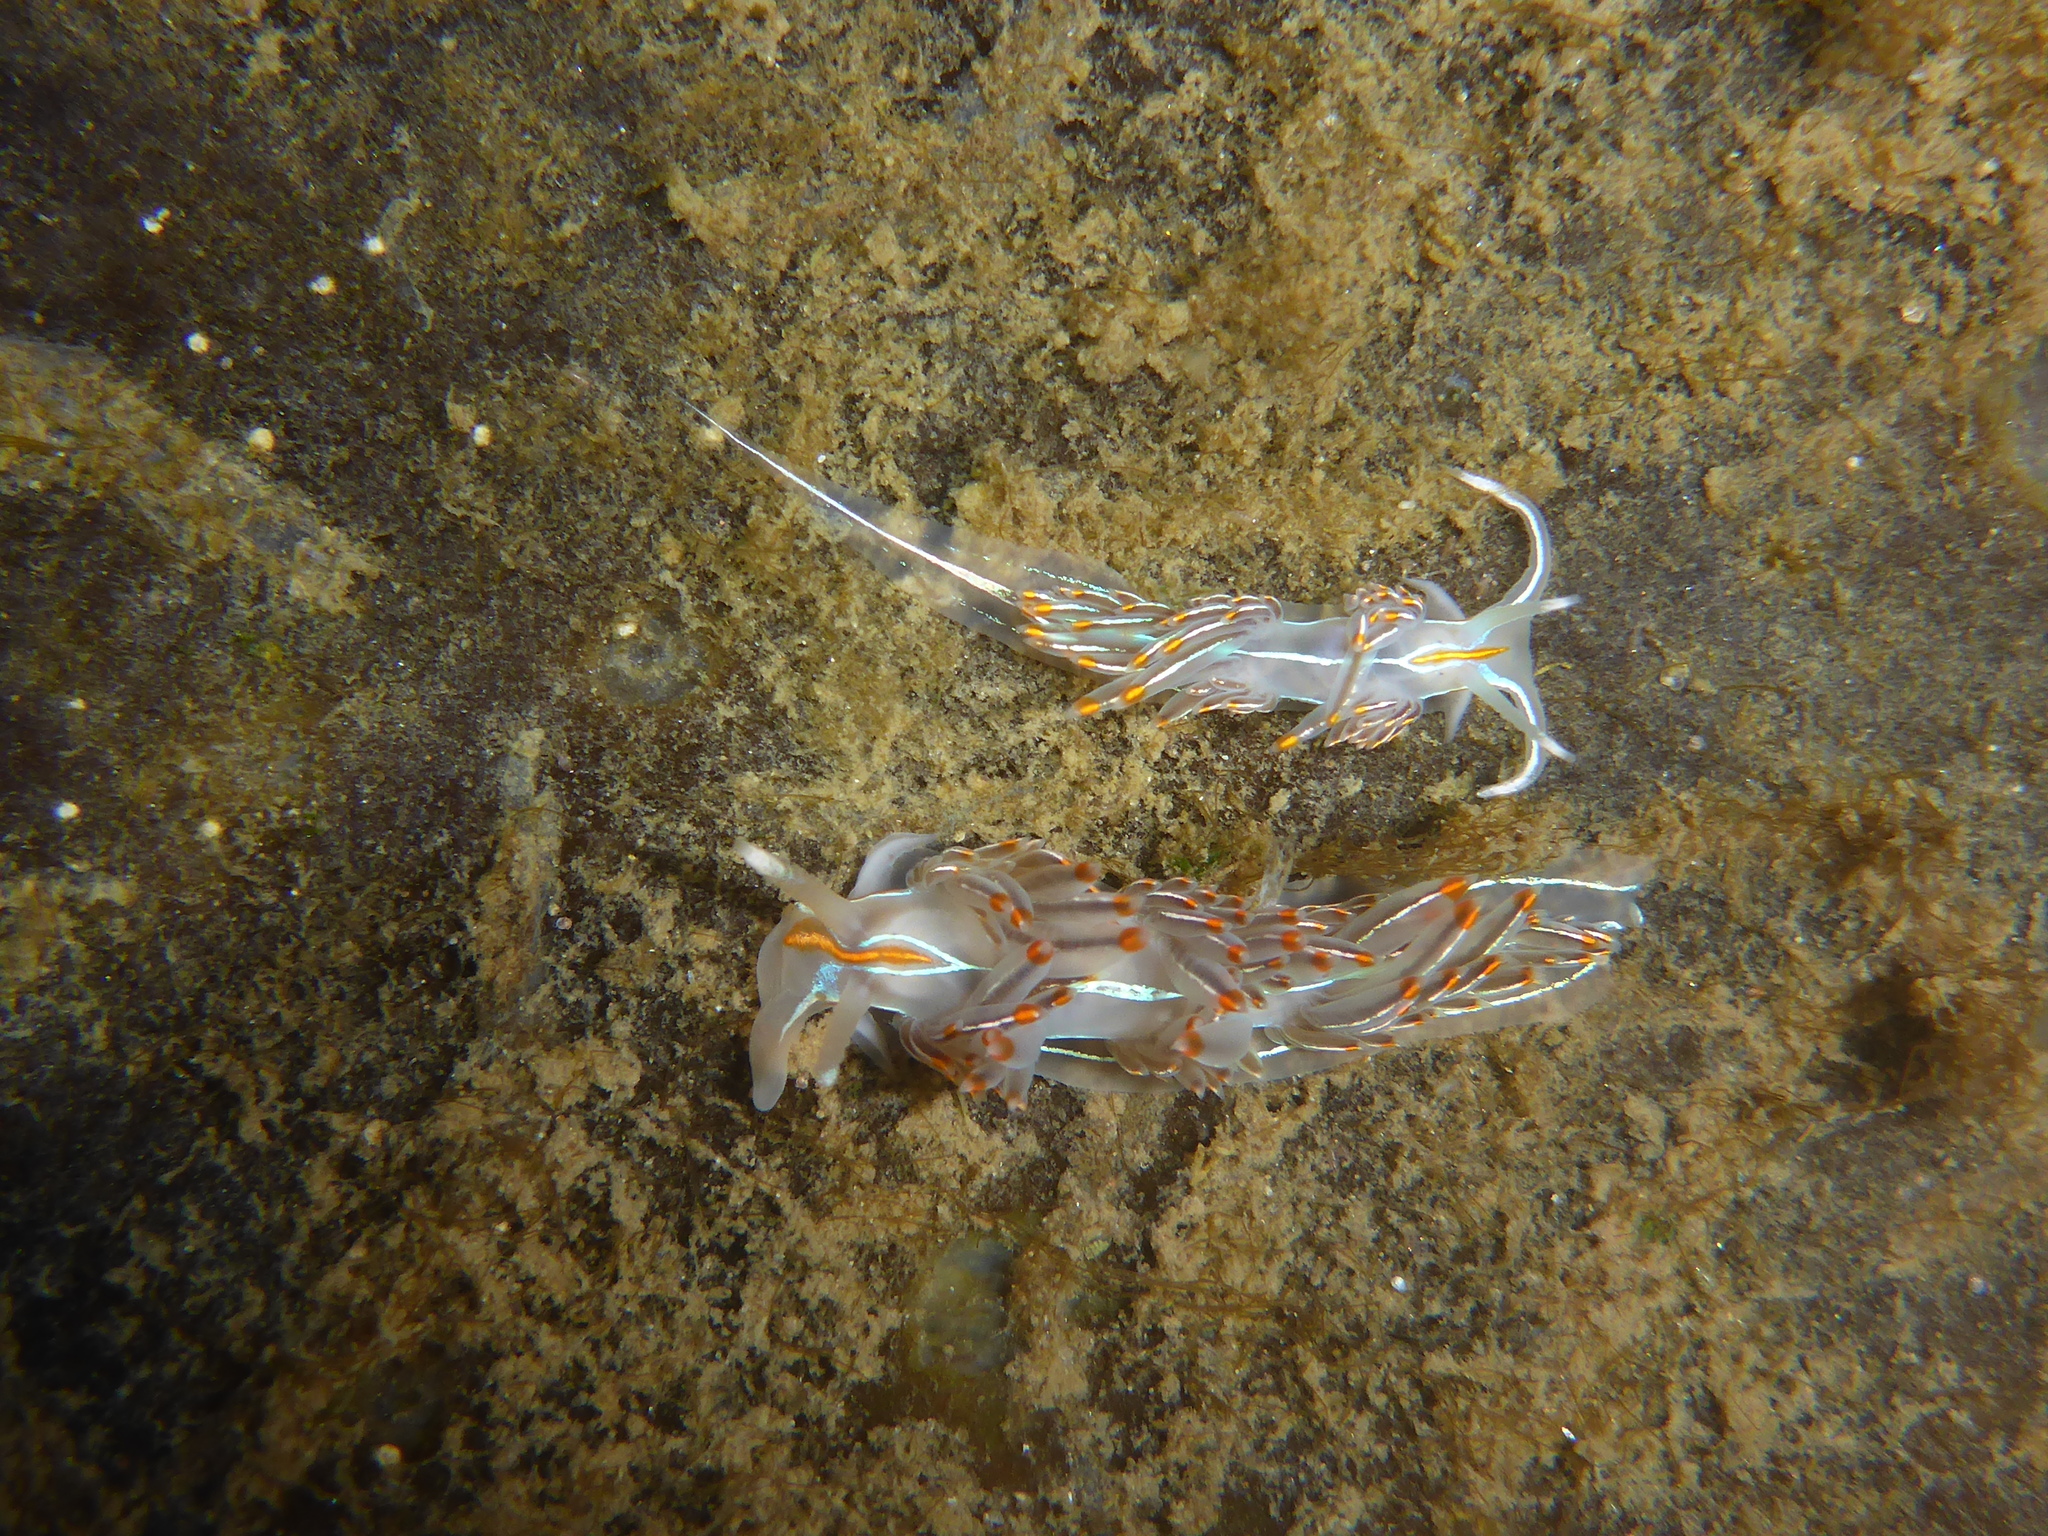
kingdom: Animalia
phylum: Mollusca
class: Gastropoda
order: Nudibranchia
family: Myrrhinidae
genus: Hermissenda
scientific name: Hermissenda crassicornis
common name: Hermissenda
